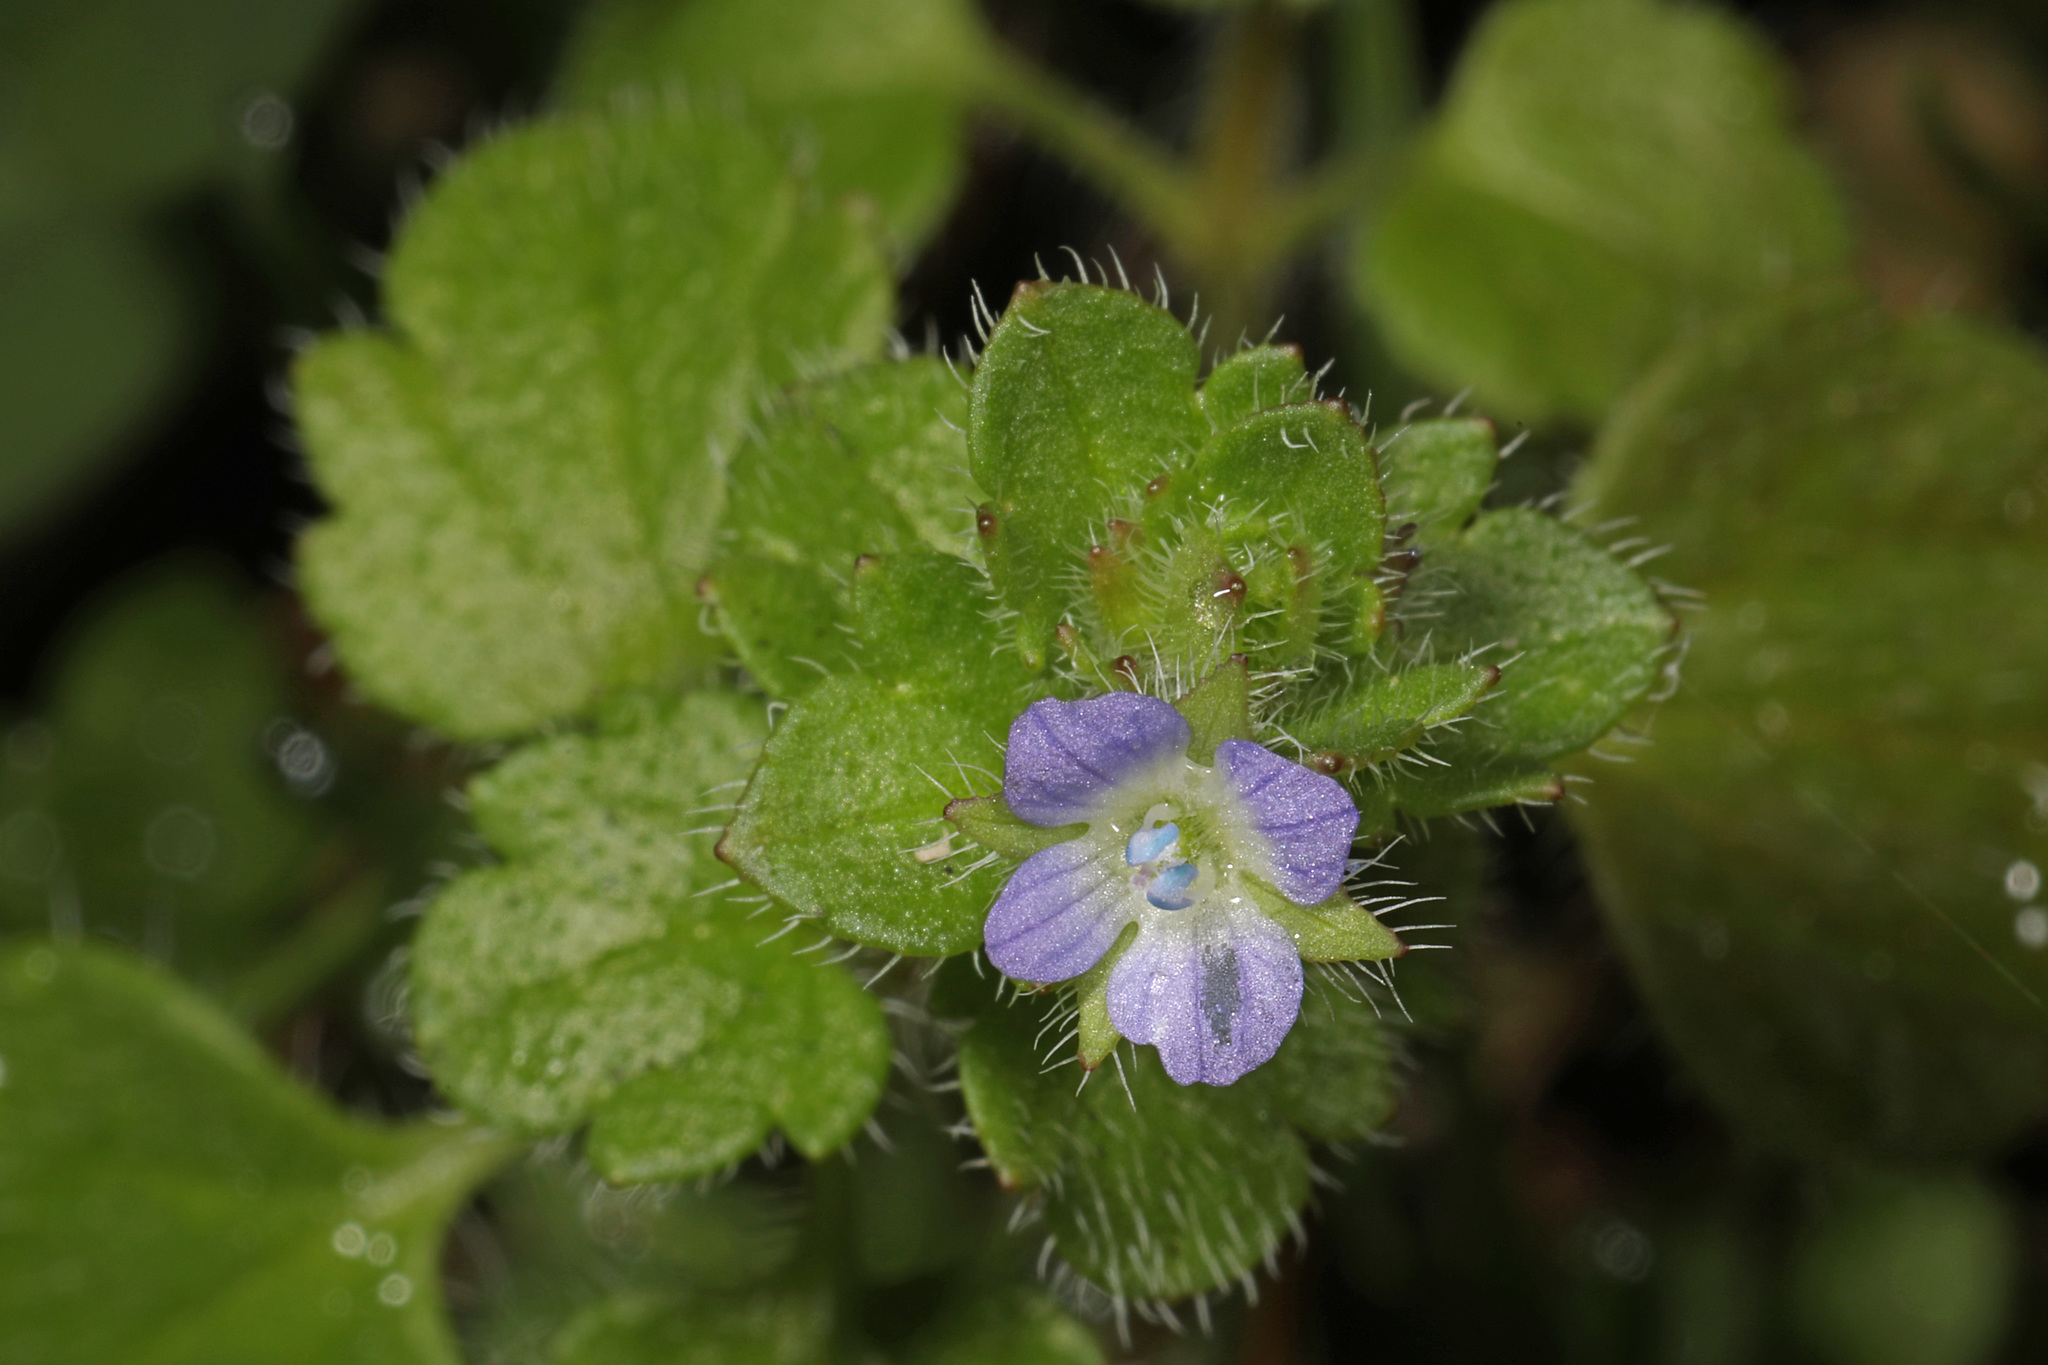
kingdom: Plantae
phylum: Tracheophyta
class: Magnoliopsida
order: Lamiales
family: Plantaginaceae
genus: Veronica
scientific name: Veronica hederifolia
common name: Ivy-leaved speedwell
